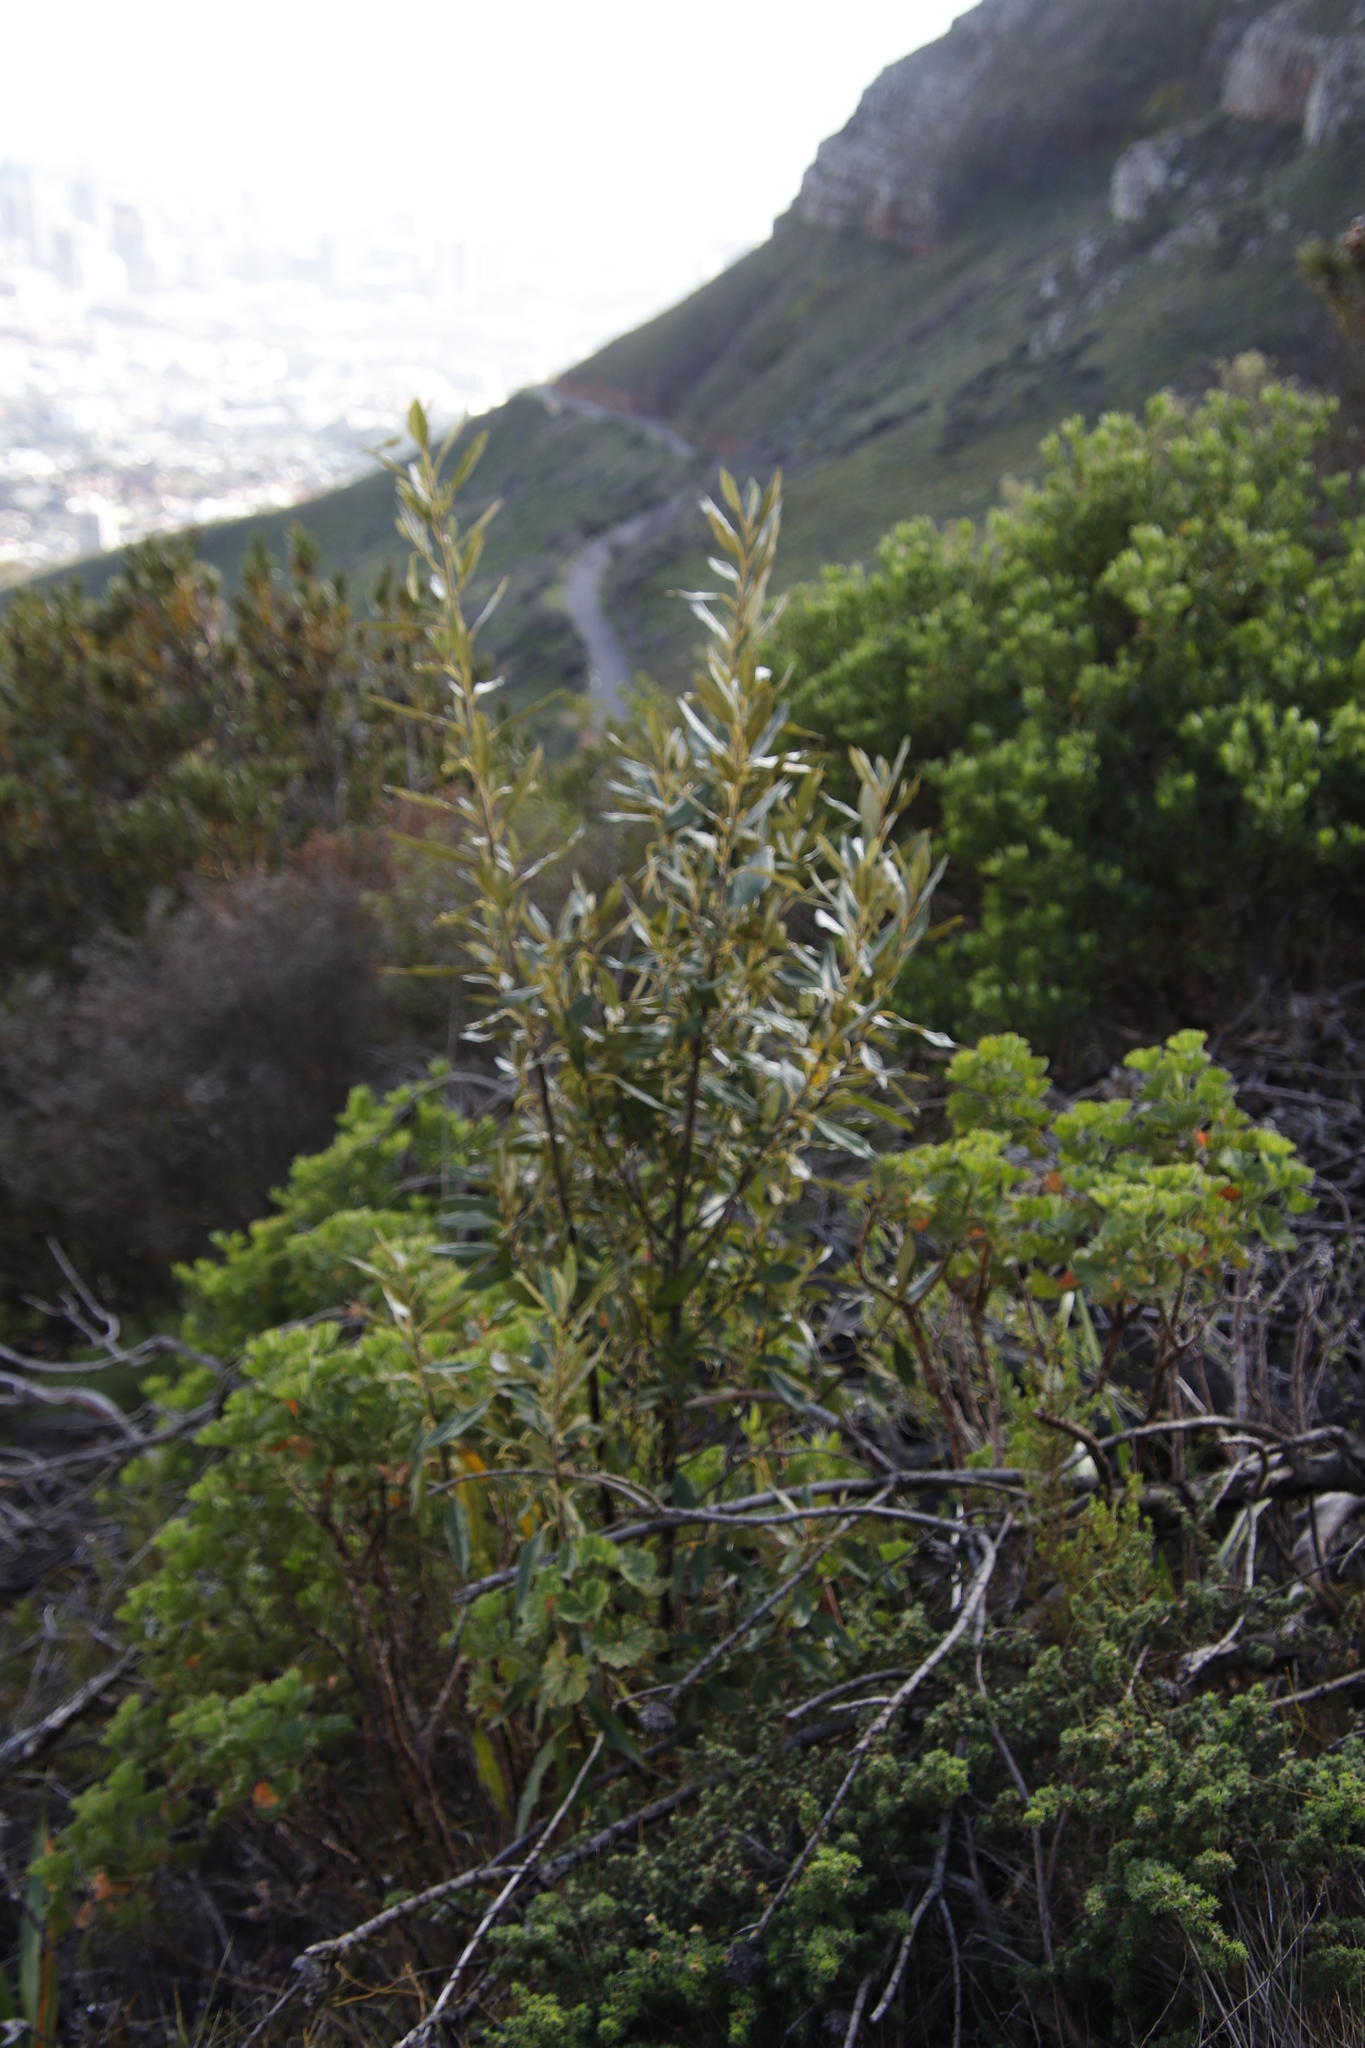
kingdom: Plantae
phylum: Tracheophyta
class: Magnoliopsida
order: Malpighiales
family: Achariaceae
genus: Kiggelaria
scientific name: Kiggelaria africana
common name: Wild peach
